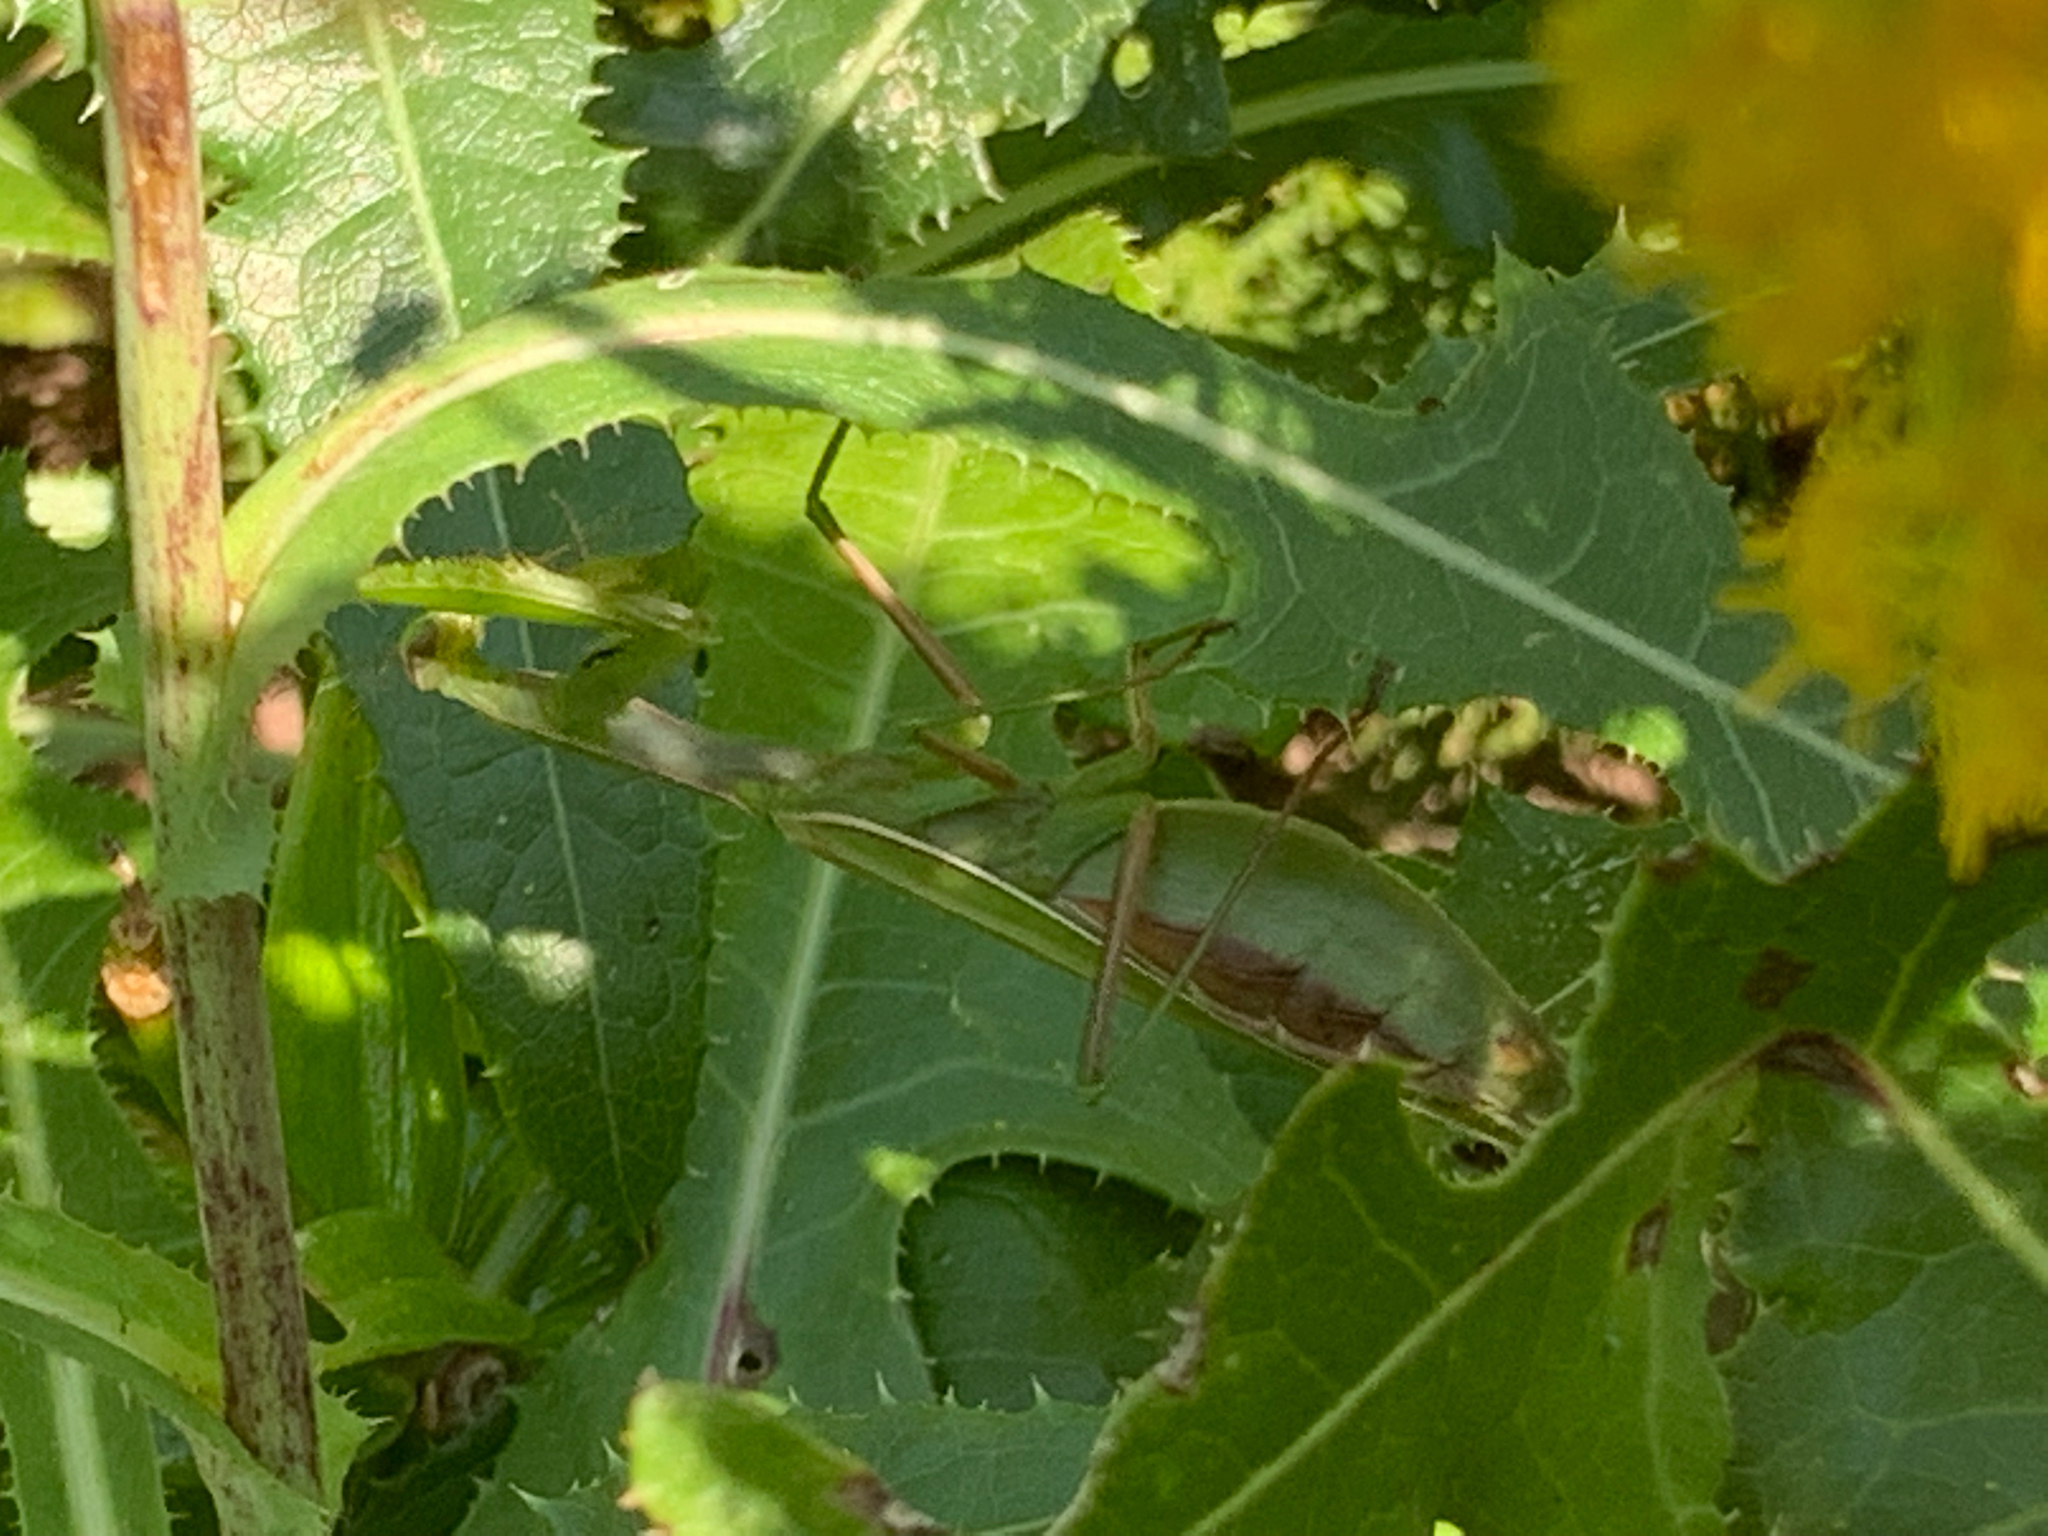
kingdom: Animalia
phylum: Arthropoda
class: Insecta
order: Mantodea
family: Mantidae
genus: Mantis
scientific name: Mantis religiosa
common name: Praying mantis
